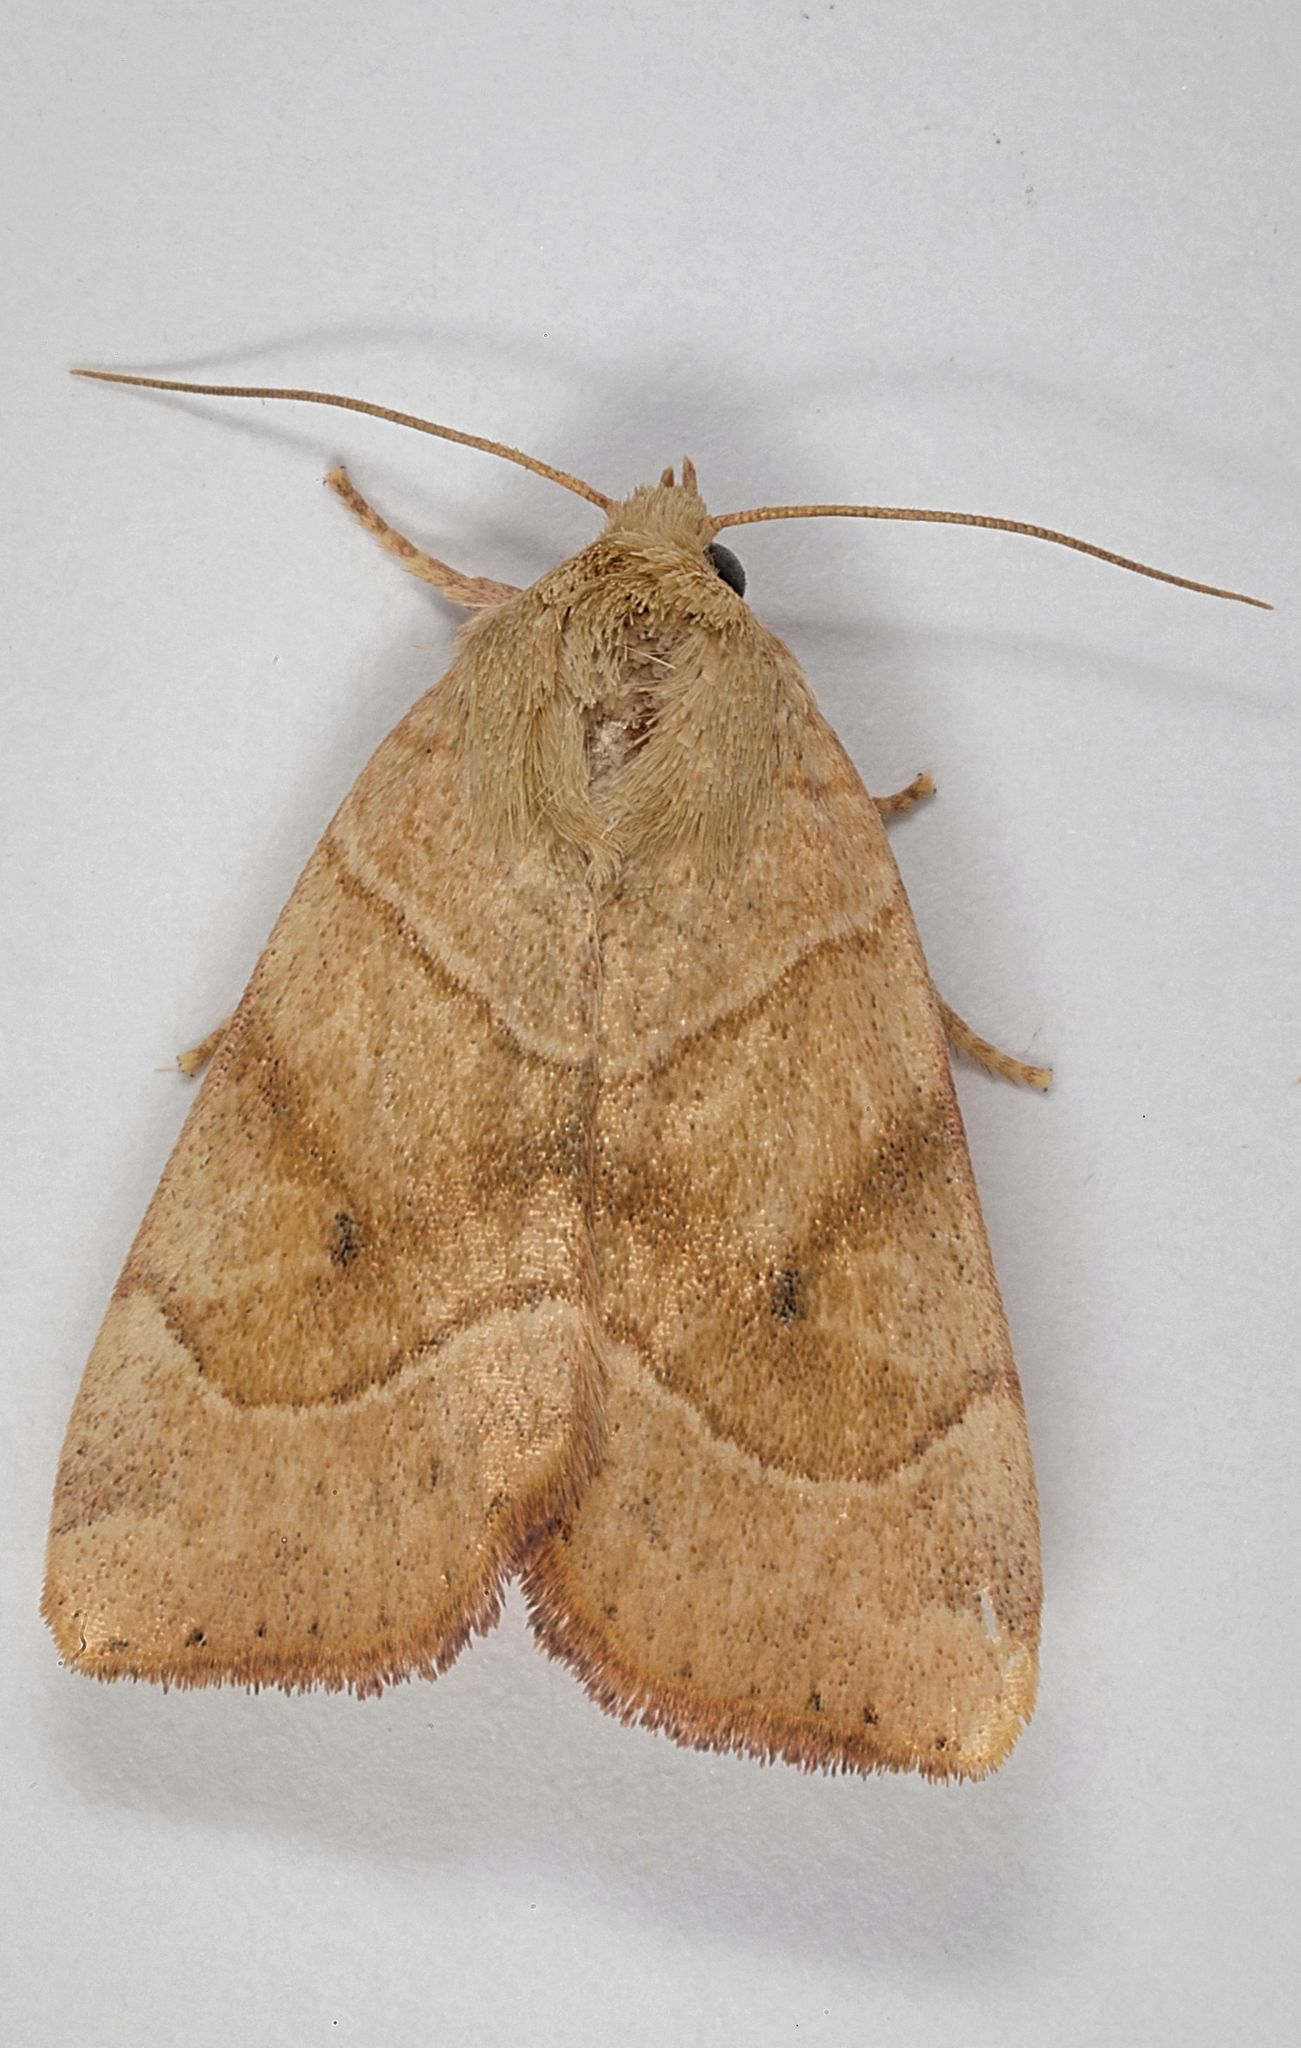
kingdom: Animalia
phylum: Arthropoda
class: Insecta
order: Lepidoptera
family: Noctuidae
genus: Cosmia
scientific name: Cosmia trapezina
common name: Dun-bar
